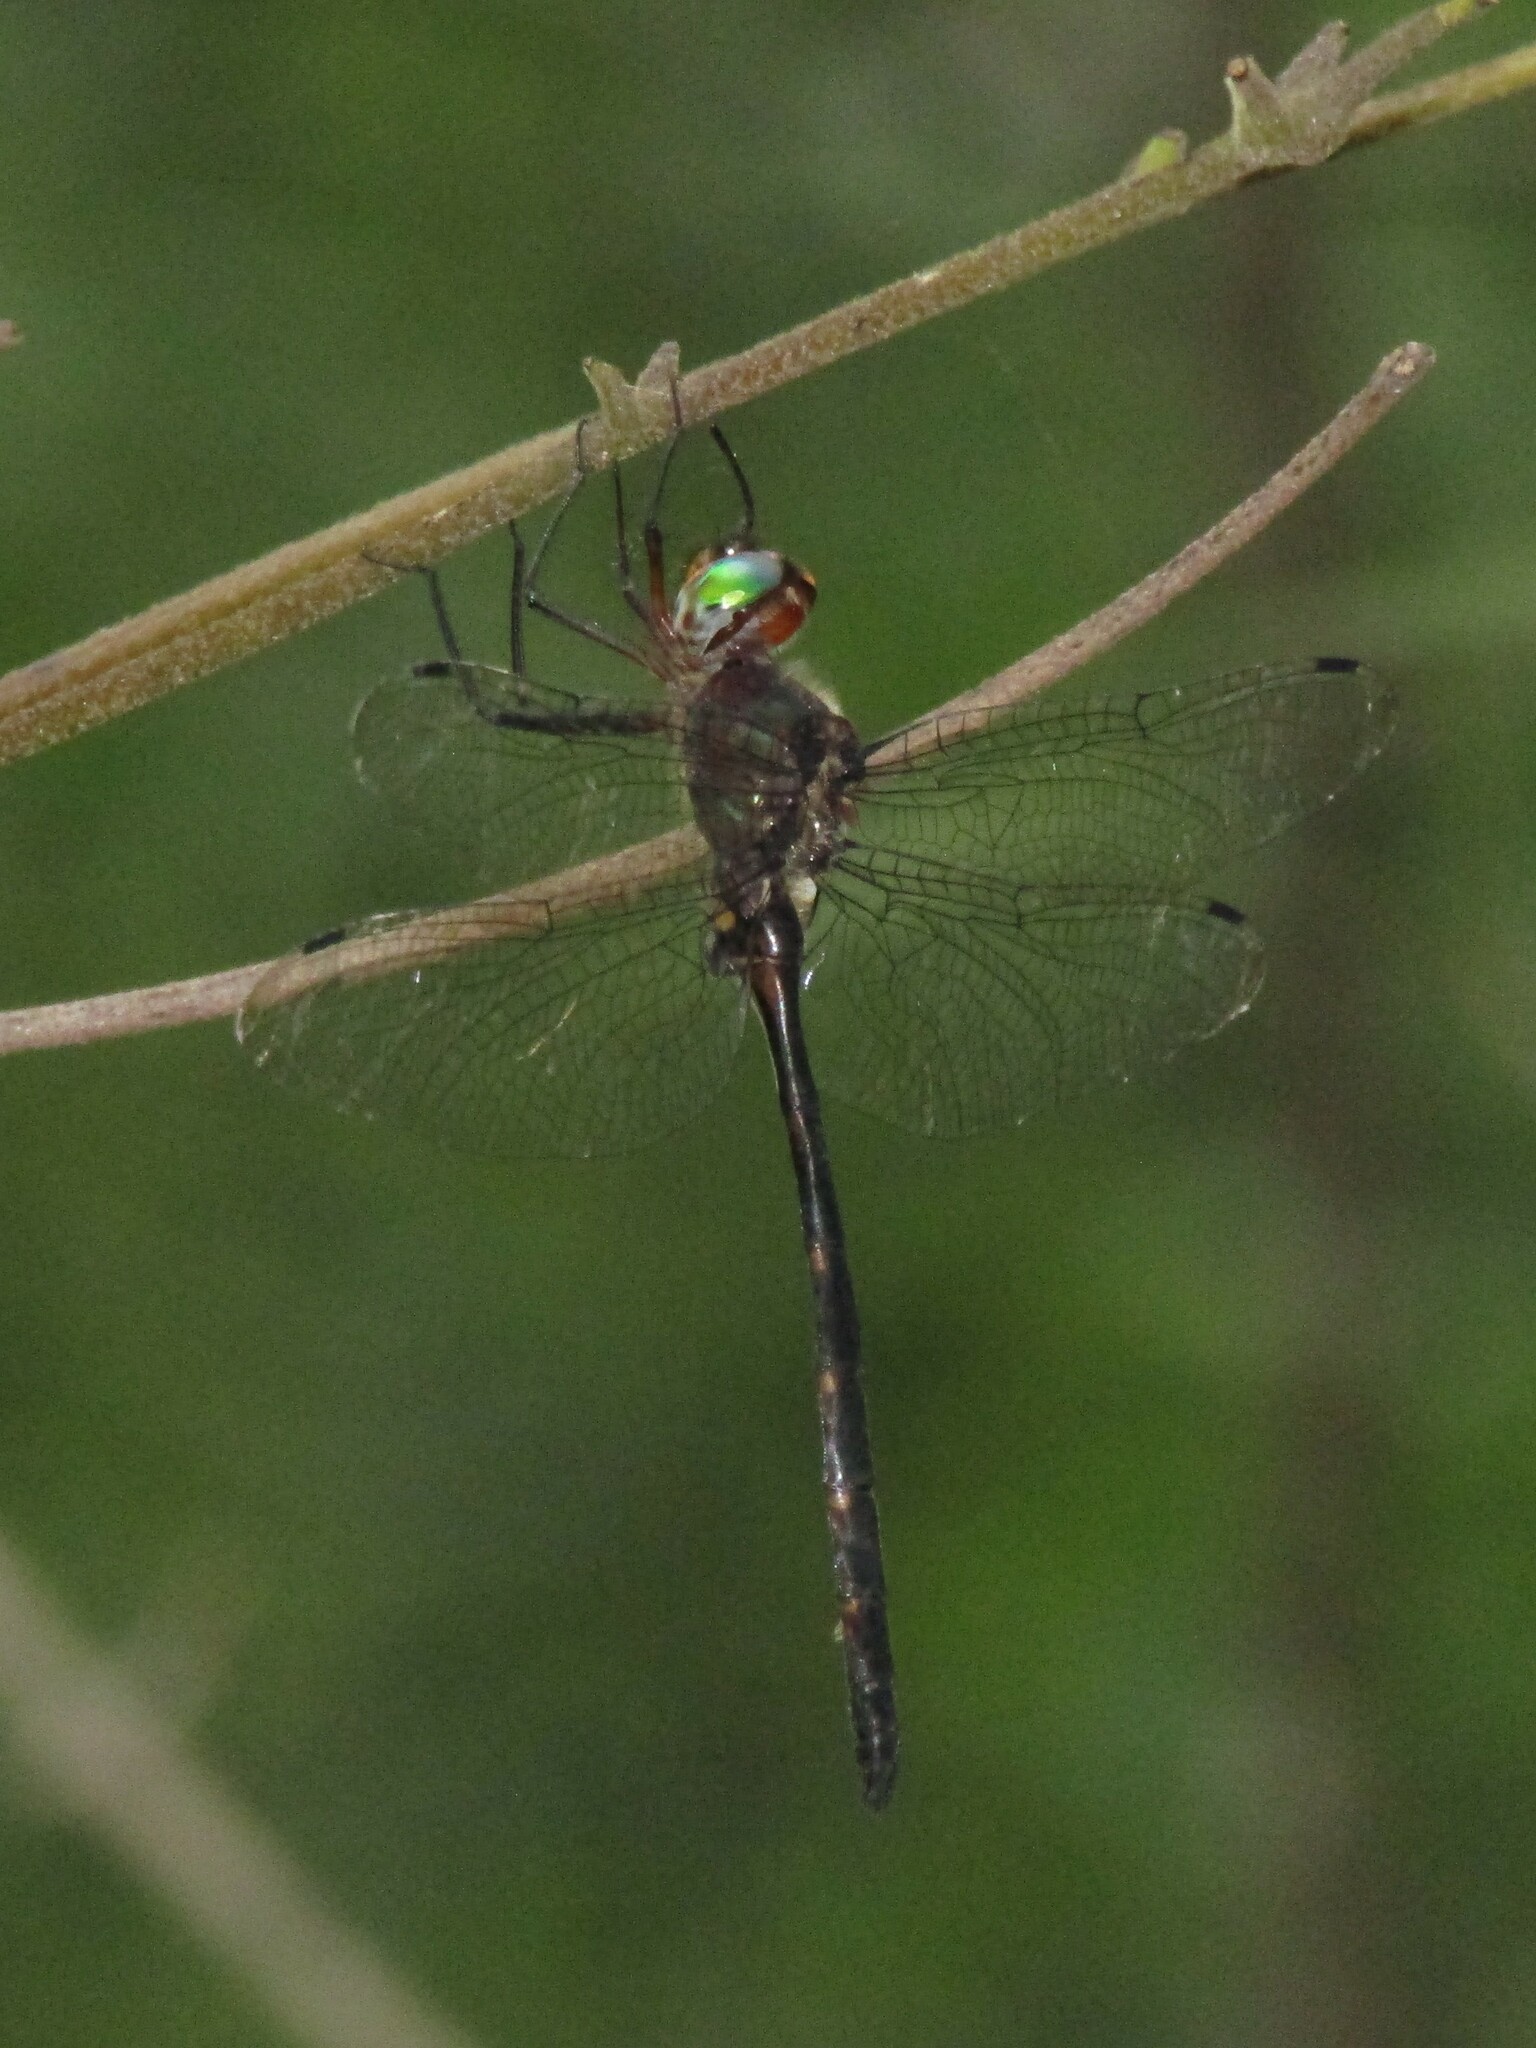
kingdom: Animalia
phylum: Arthropoda
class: Insecta
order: Odonata
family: Corduliidae
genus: Somatochlora
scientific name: Somatochlora linearis
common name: Mocha emerald
